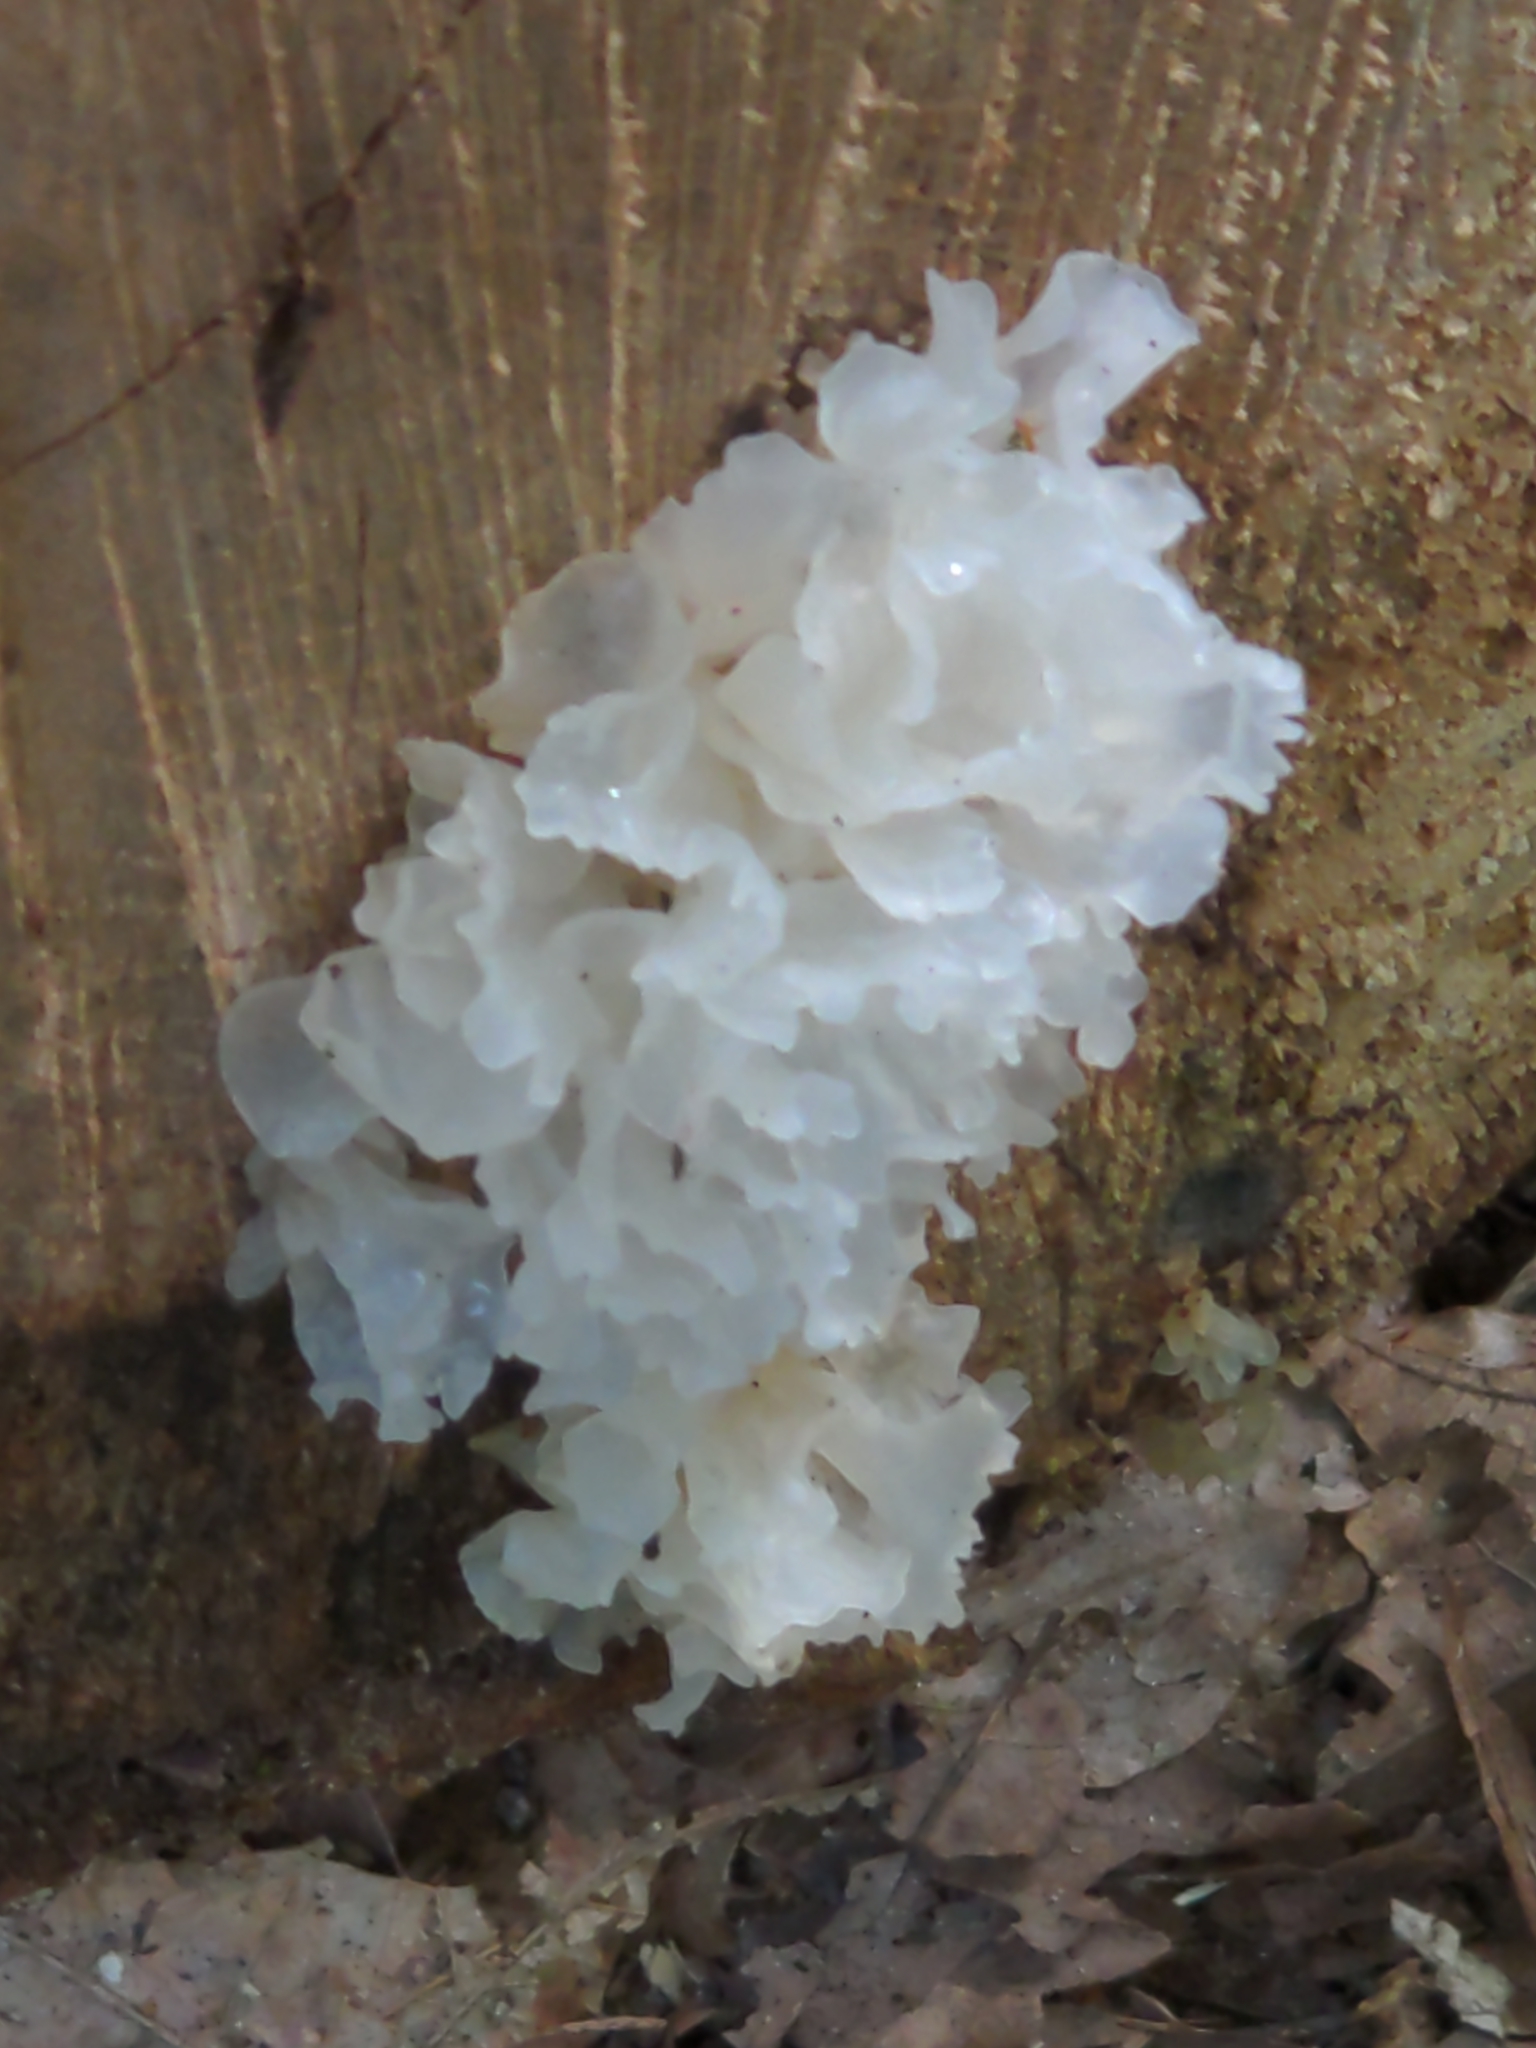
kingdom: Fungi
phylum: Basidiomycota
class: Tremellomycetes
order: Tremellales
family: Tremellaceae
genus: Tremella
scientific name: Tremella fuciformis
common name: Snow fungus
